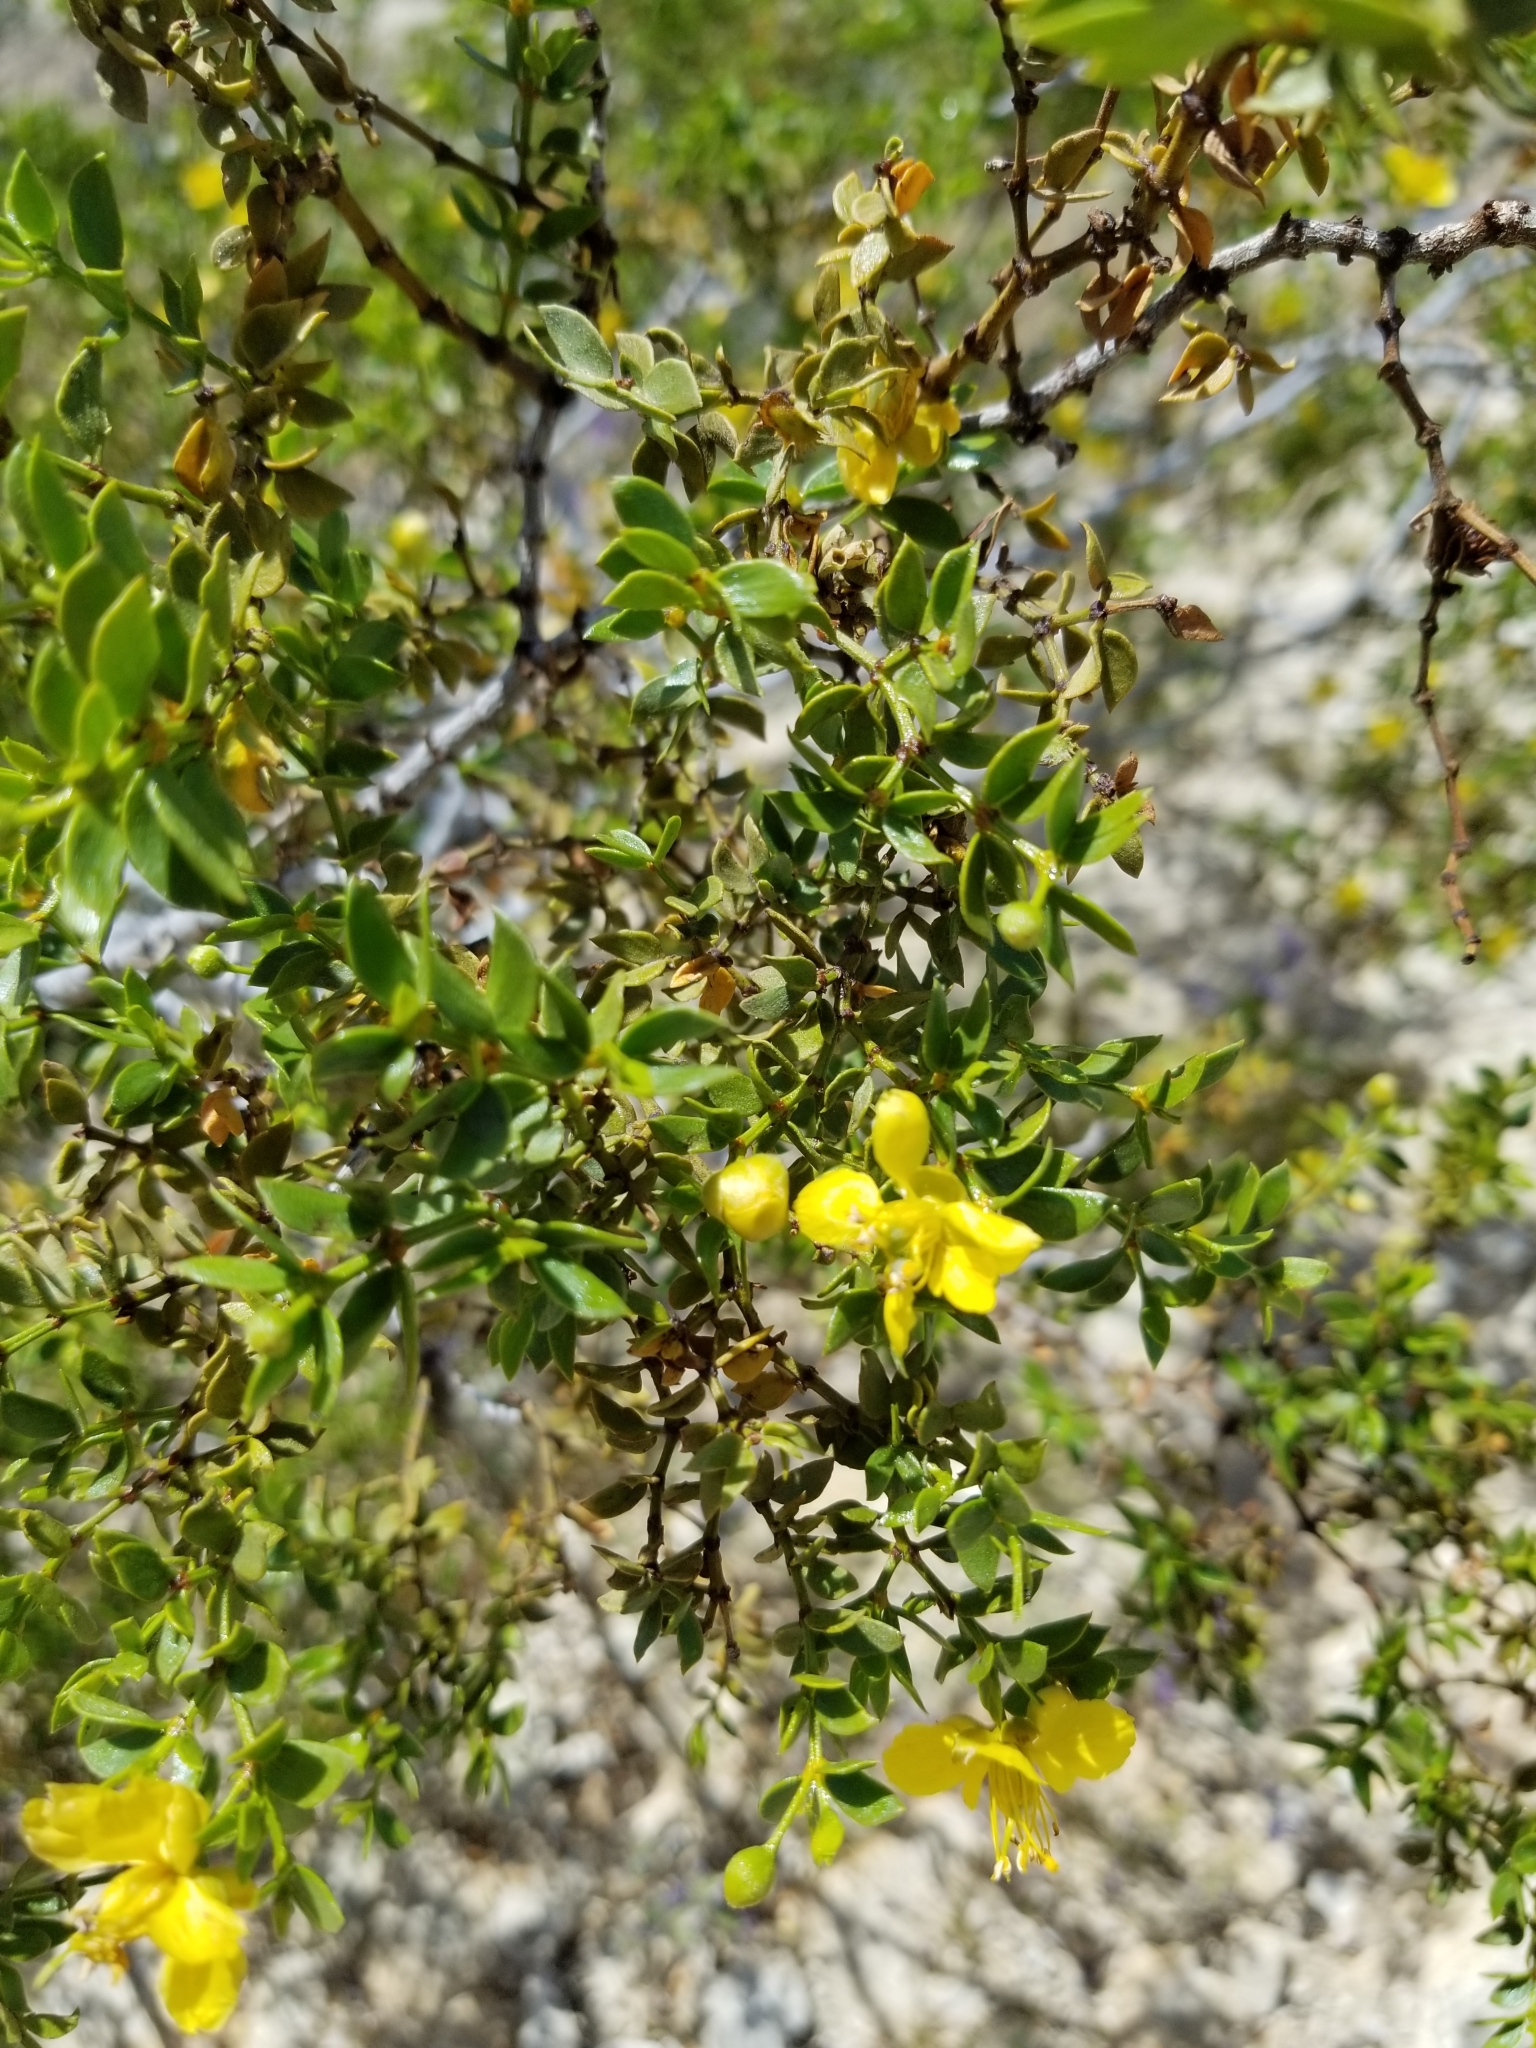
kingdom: Plantae
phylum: Tracheophyta
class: Magnoliopsida
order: Zygophyllales
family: Zygophyllaceae
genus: Larrea
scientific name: Larrea tridentata
